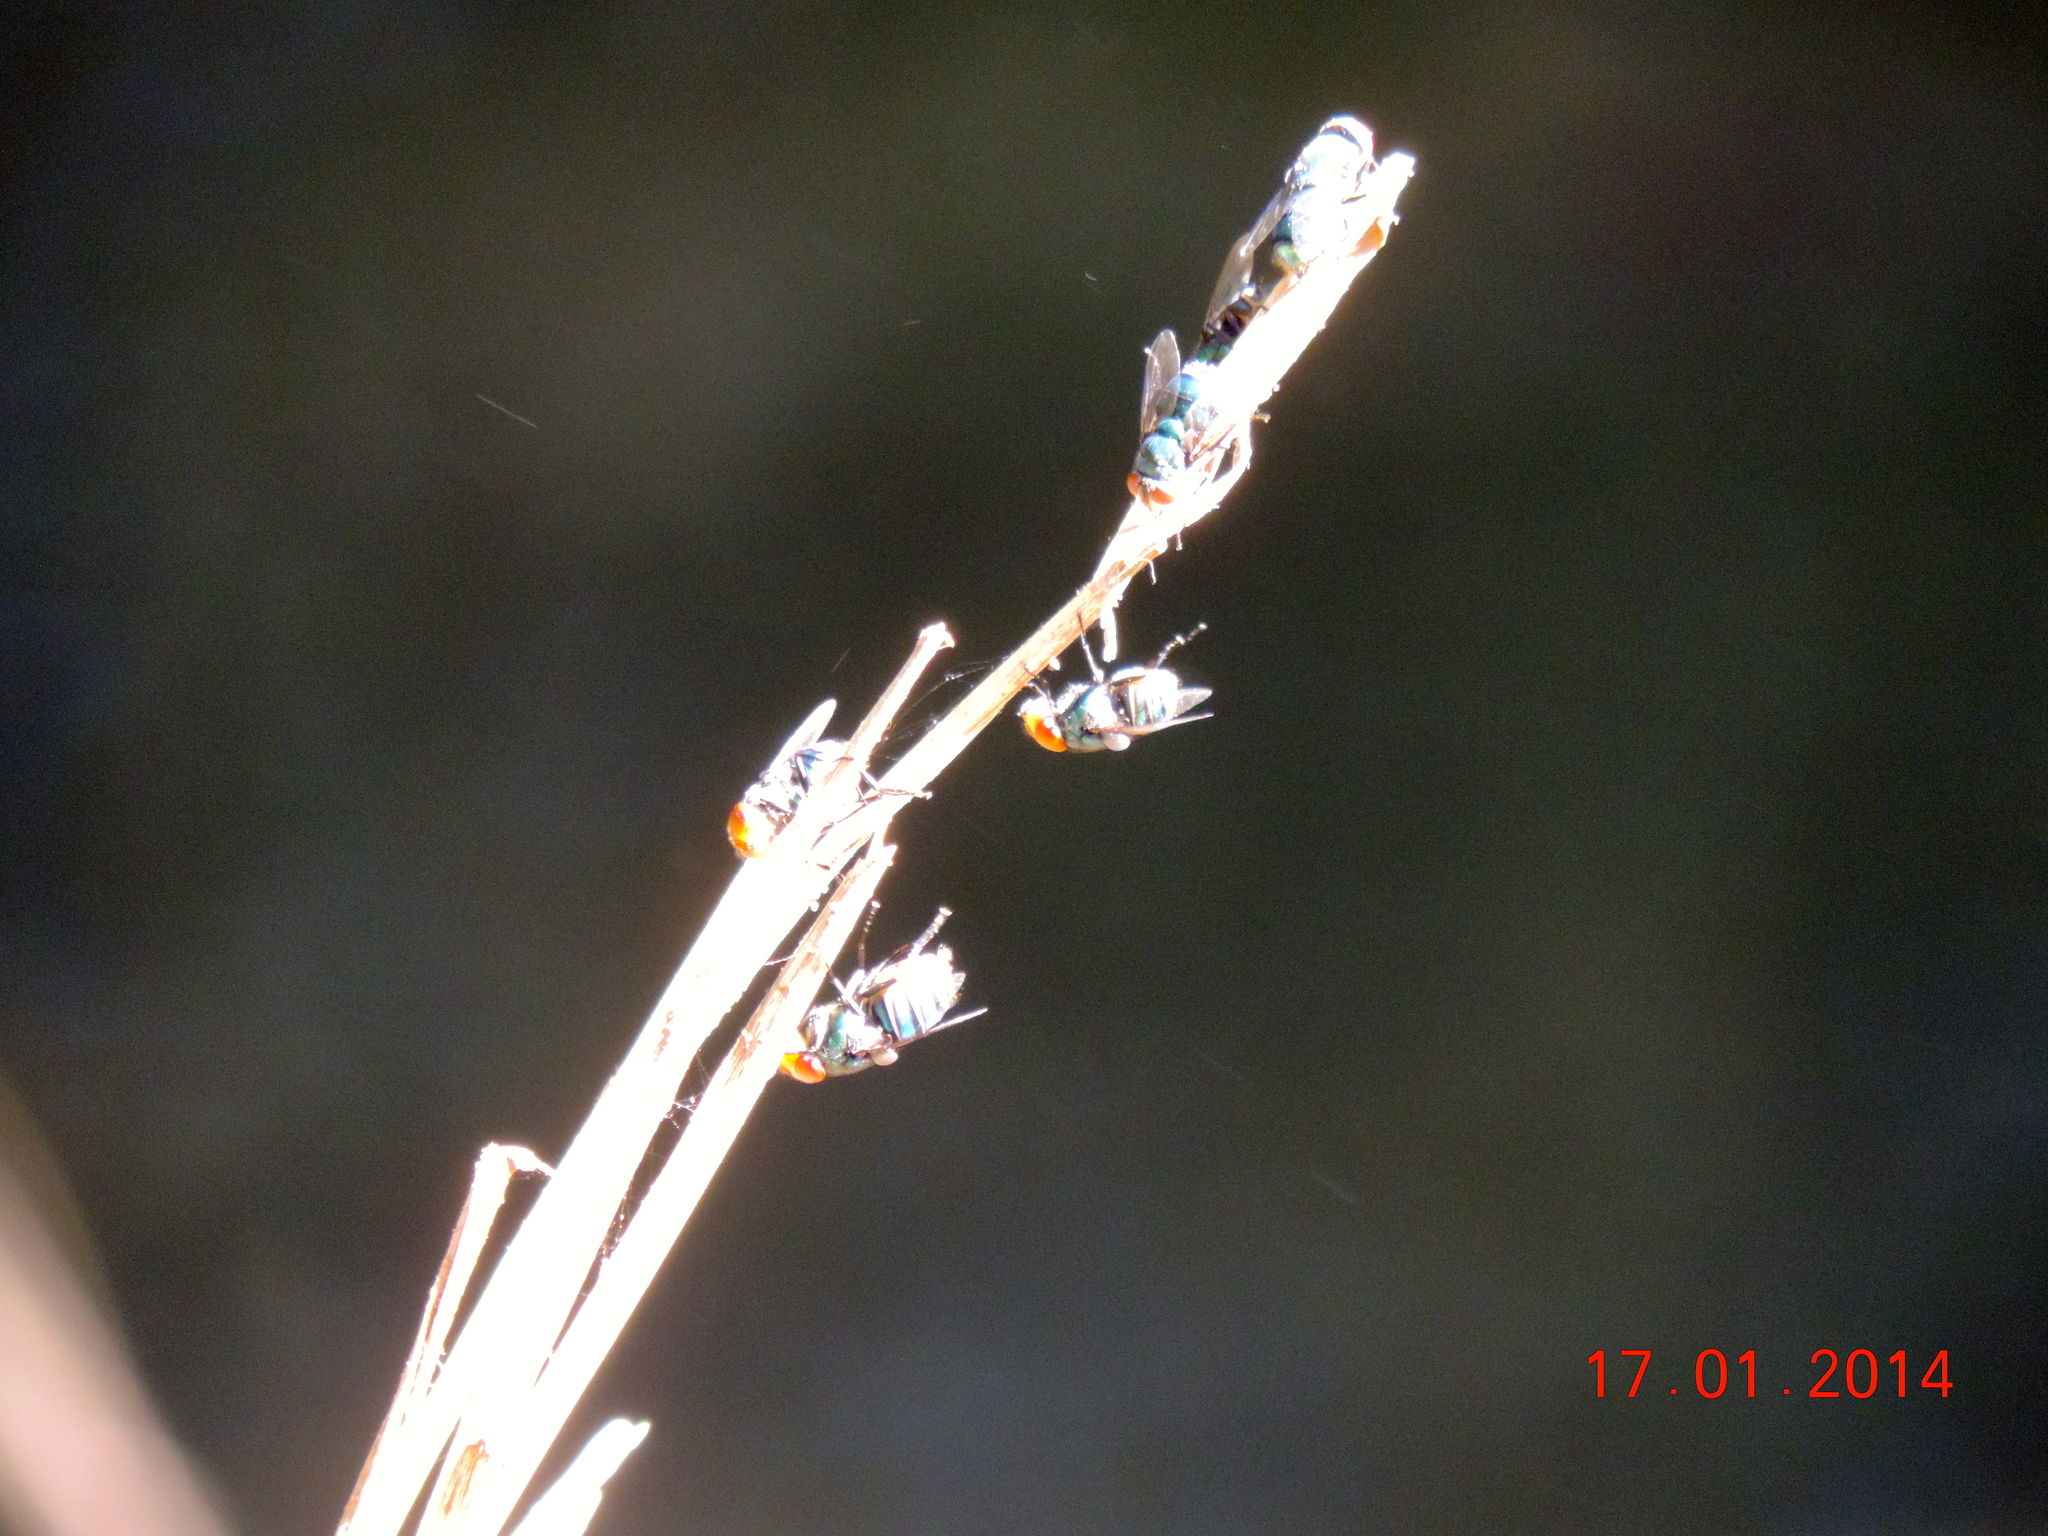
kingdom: Animalia
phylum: Arthropoda
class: Insecta
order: Diptera
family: Calliphoridae
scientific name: Calliphoridae
